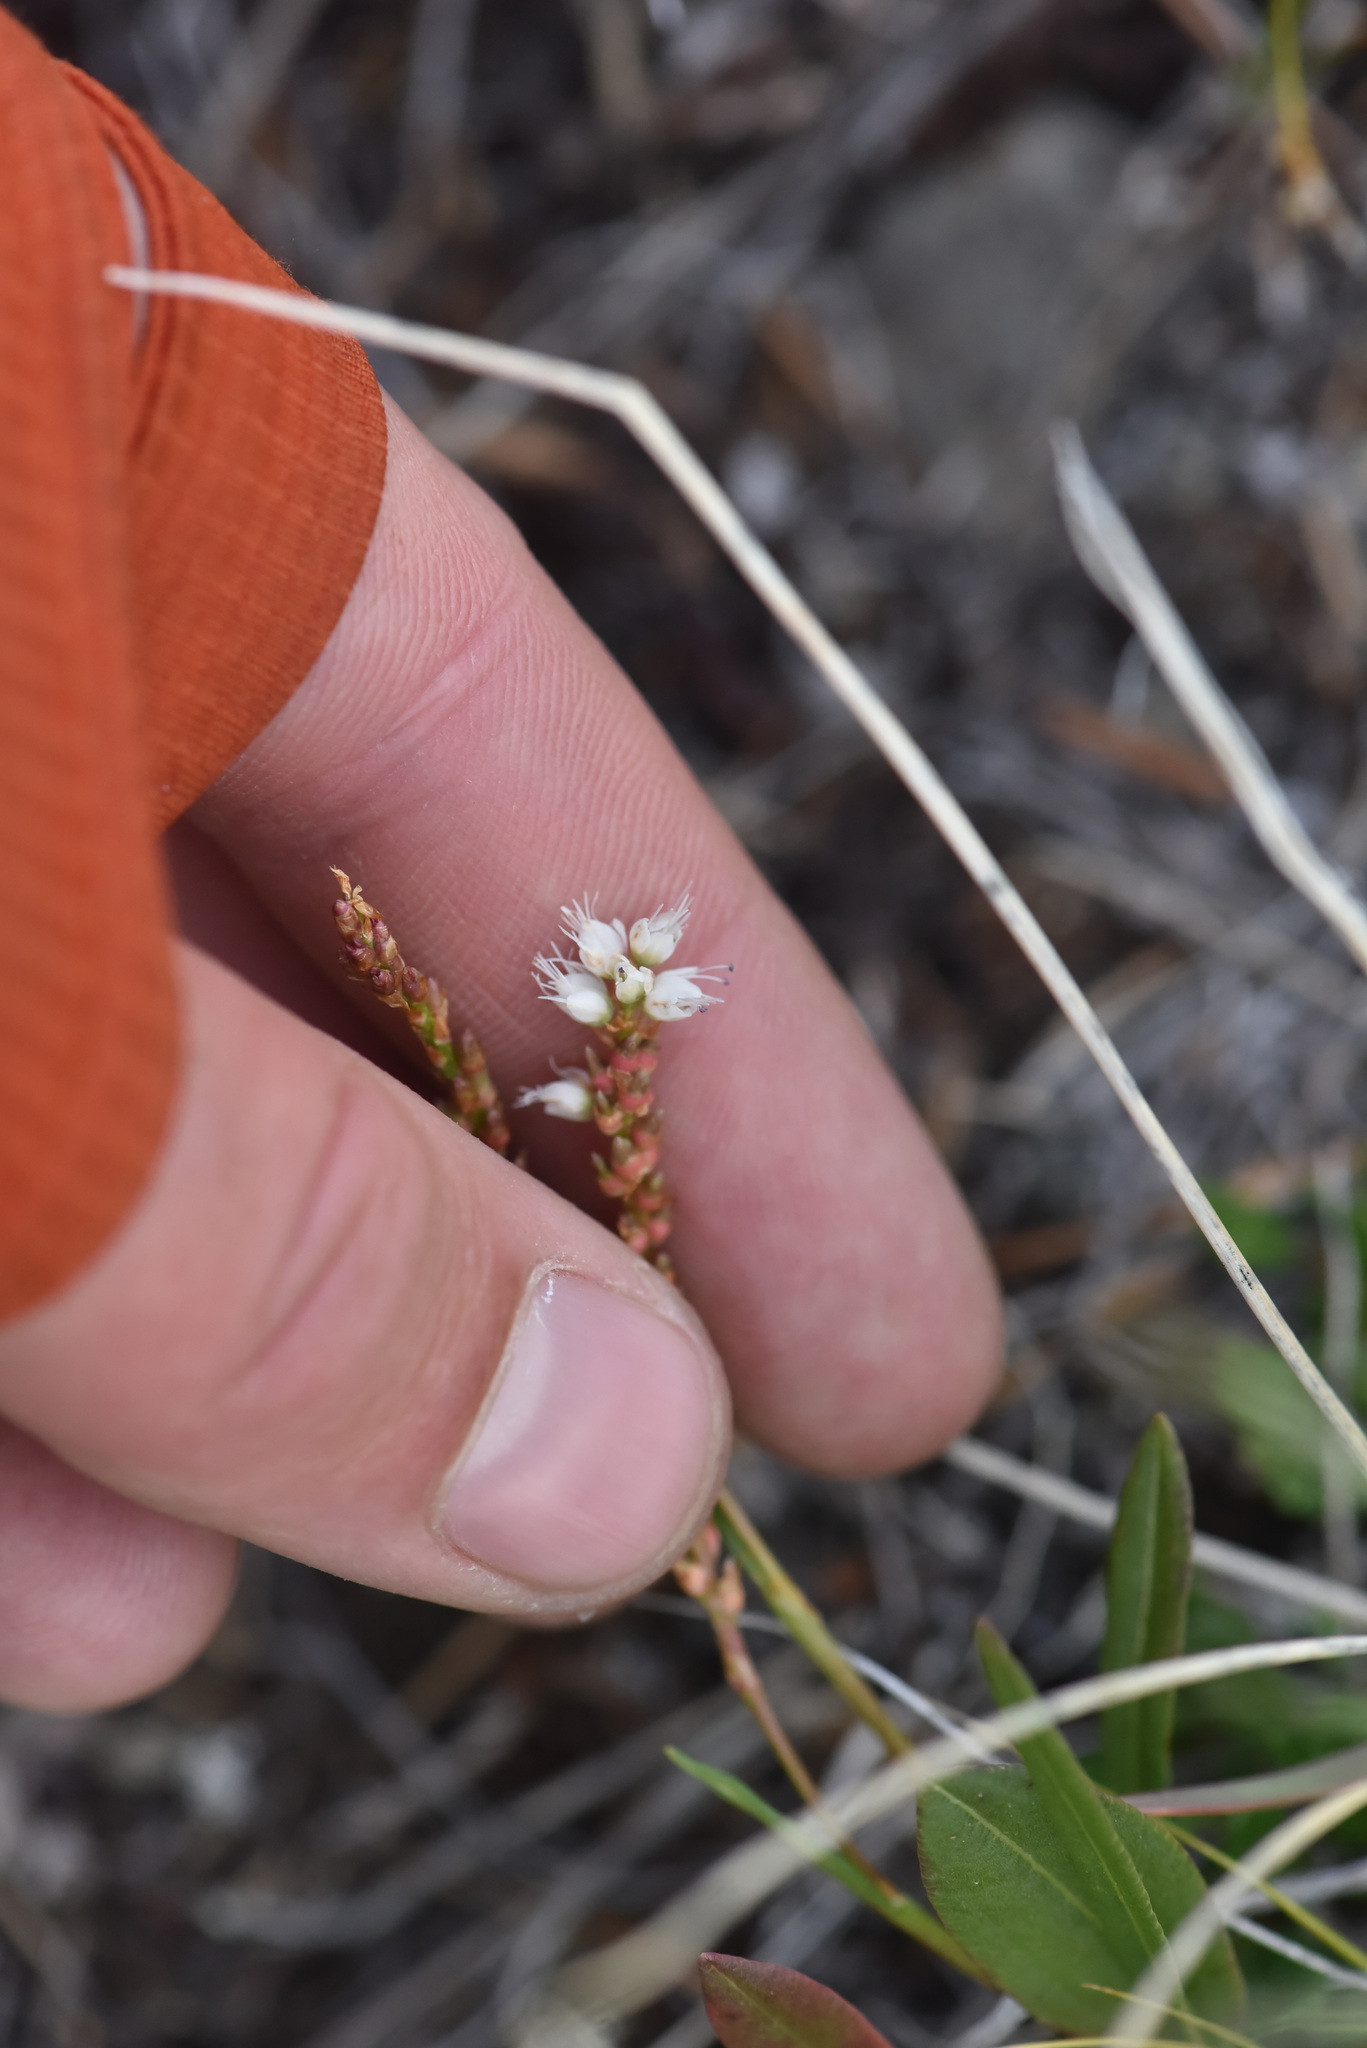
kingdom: Plantae
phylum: Tracheophyta
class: Magnoliopsida
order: Caryophyllales
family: Polygonaceae
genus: Bistorta
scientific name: Bistorta vivipara
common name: Alpine bistort
